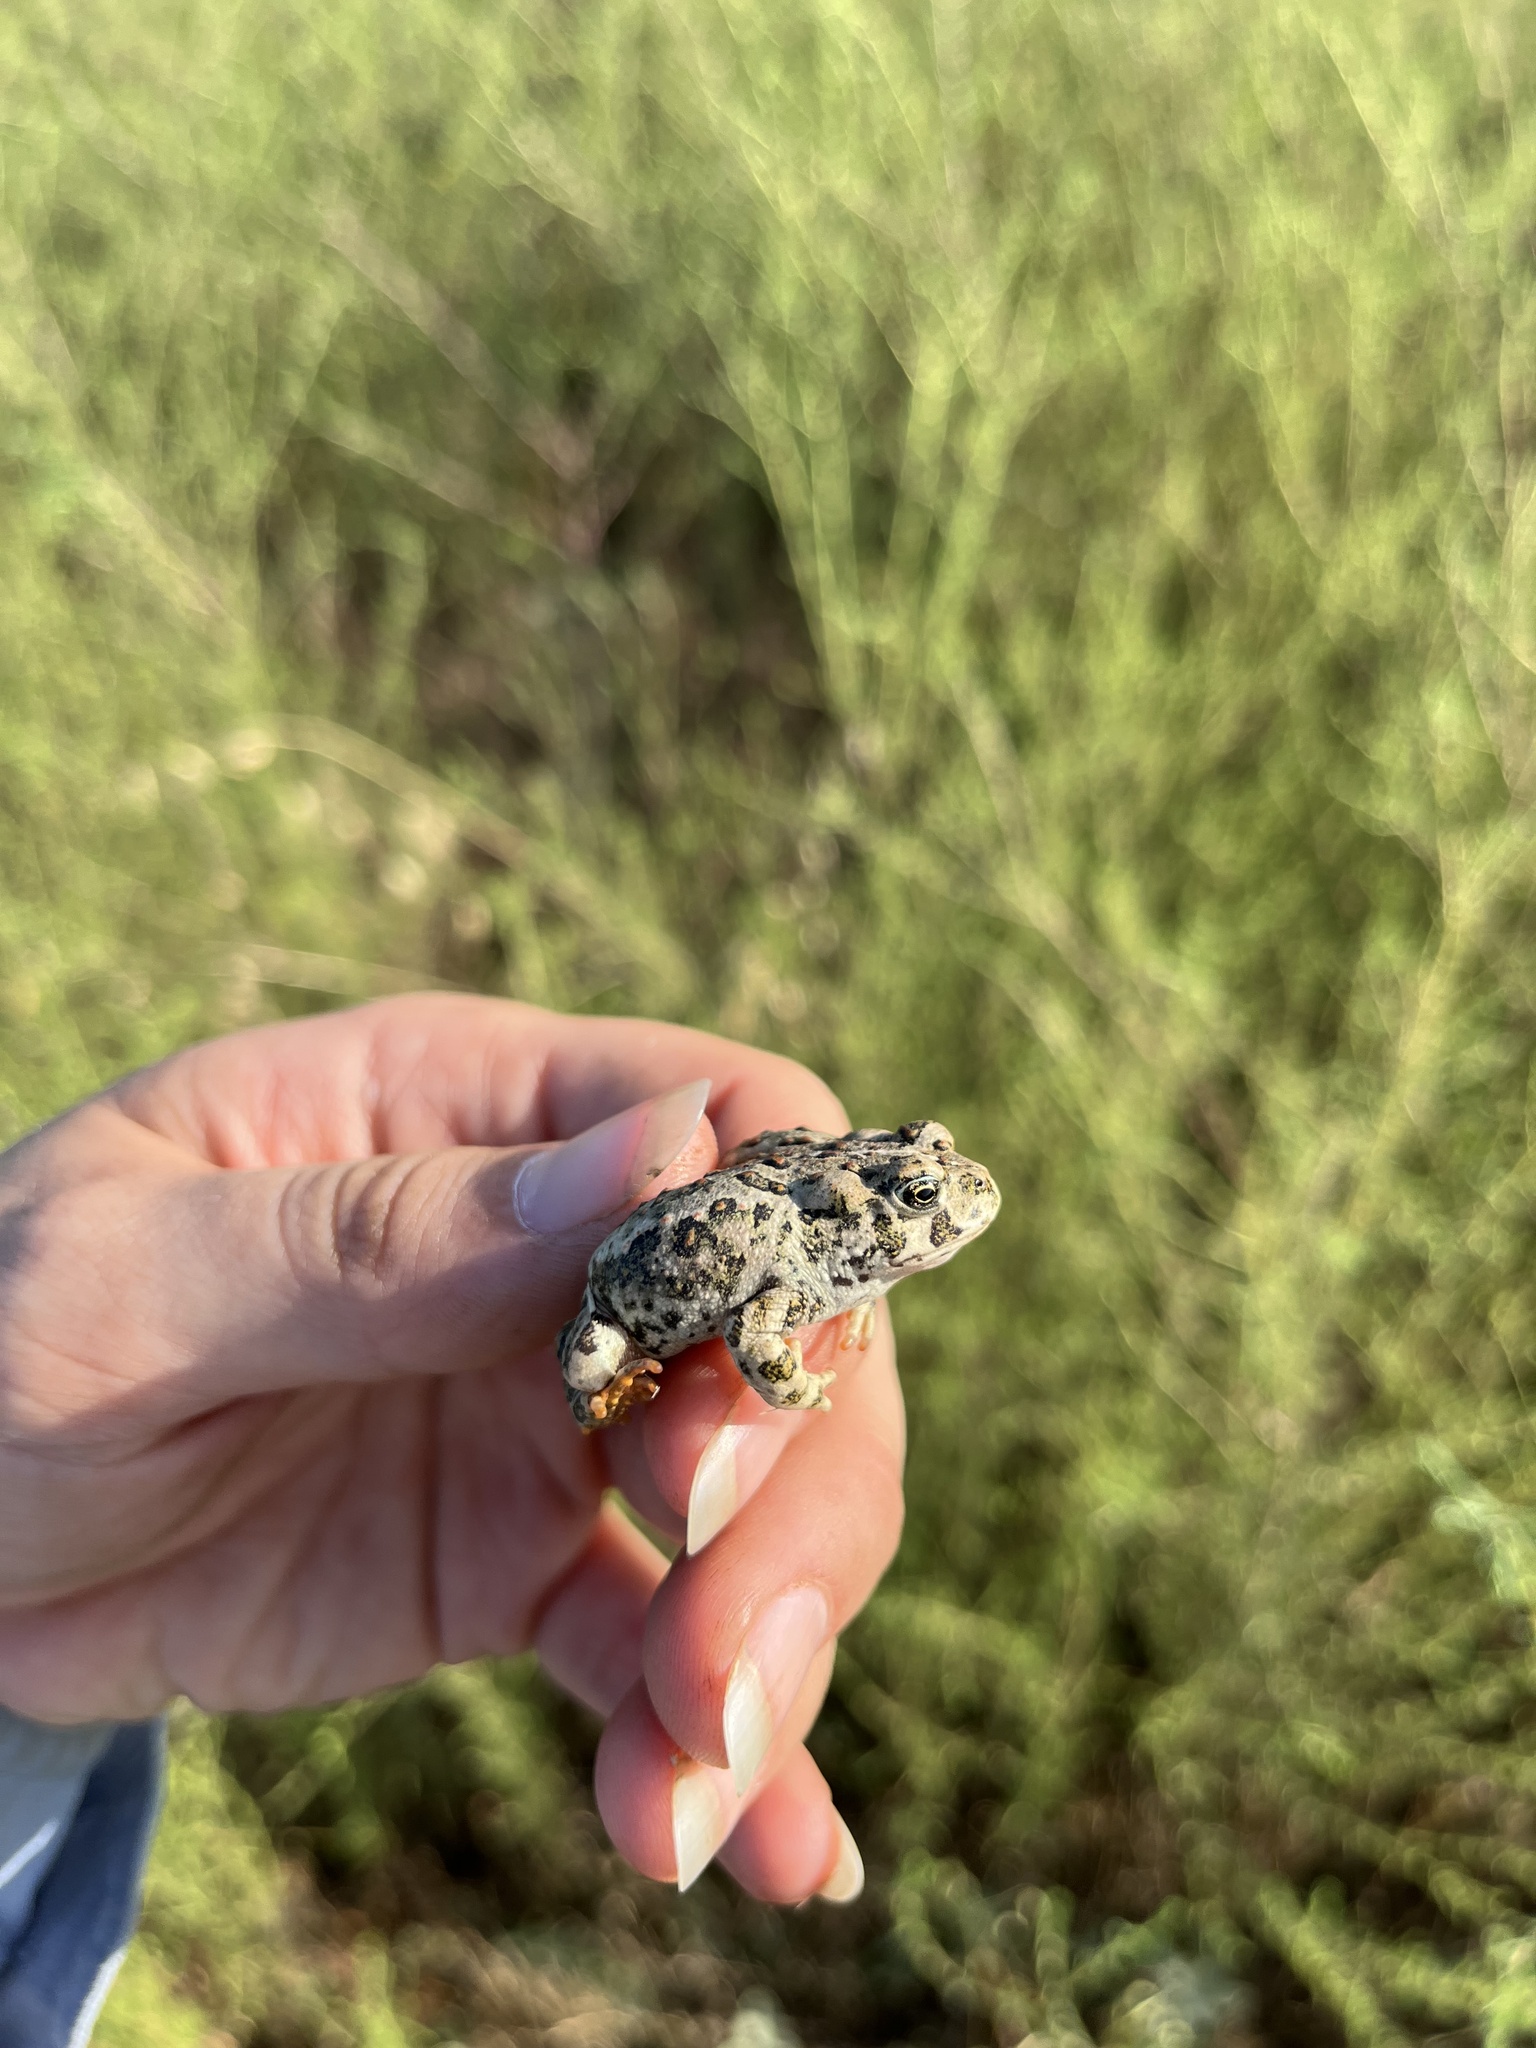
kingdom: Animalia
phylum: Chordata
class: Amphibia
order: Anura
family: Bufonidae
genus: Anaxyrus
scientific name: Anaxyrus boreas
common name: Western toad
